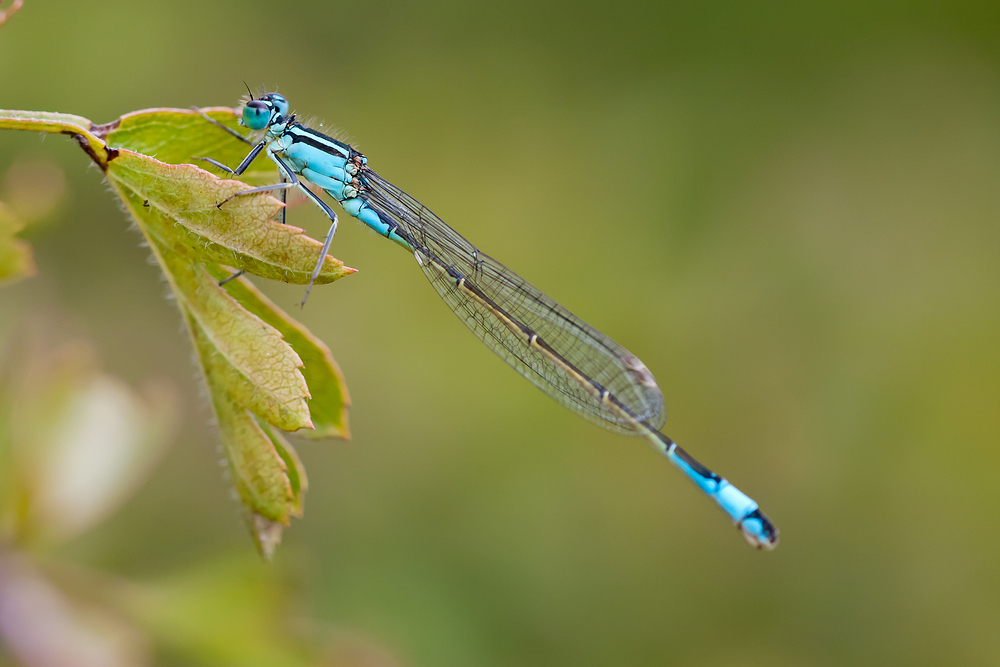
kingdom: Animalia
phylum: Arthropoda
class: Insecta
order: Odonata
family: Coenagrionidae
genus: Ischnura
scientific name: Ischnura elegans
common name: Blue-tailed damselfly
